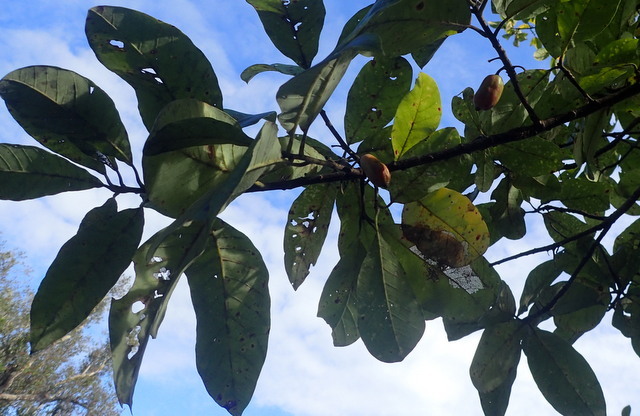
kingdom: Plantae
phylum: Tracheophyta
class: Magnoliopsida
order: Cornales
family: Nyssaceae
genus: Nyssa
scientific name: Nyssa ogeche
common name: Ogeechee tupelo
